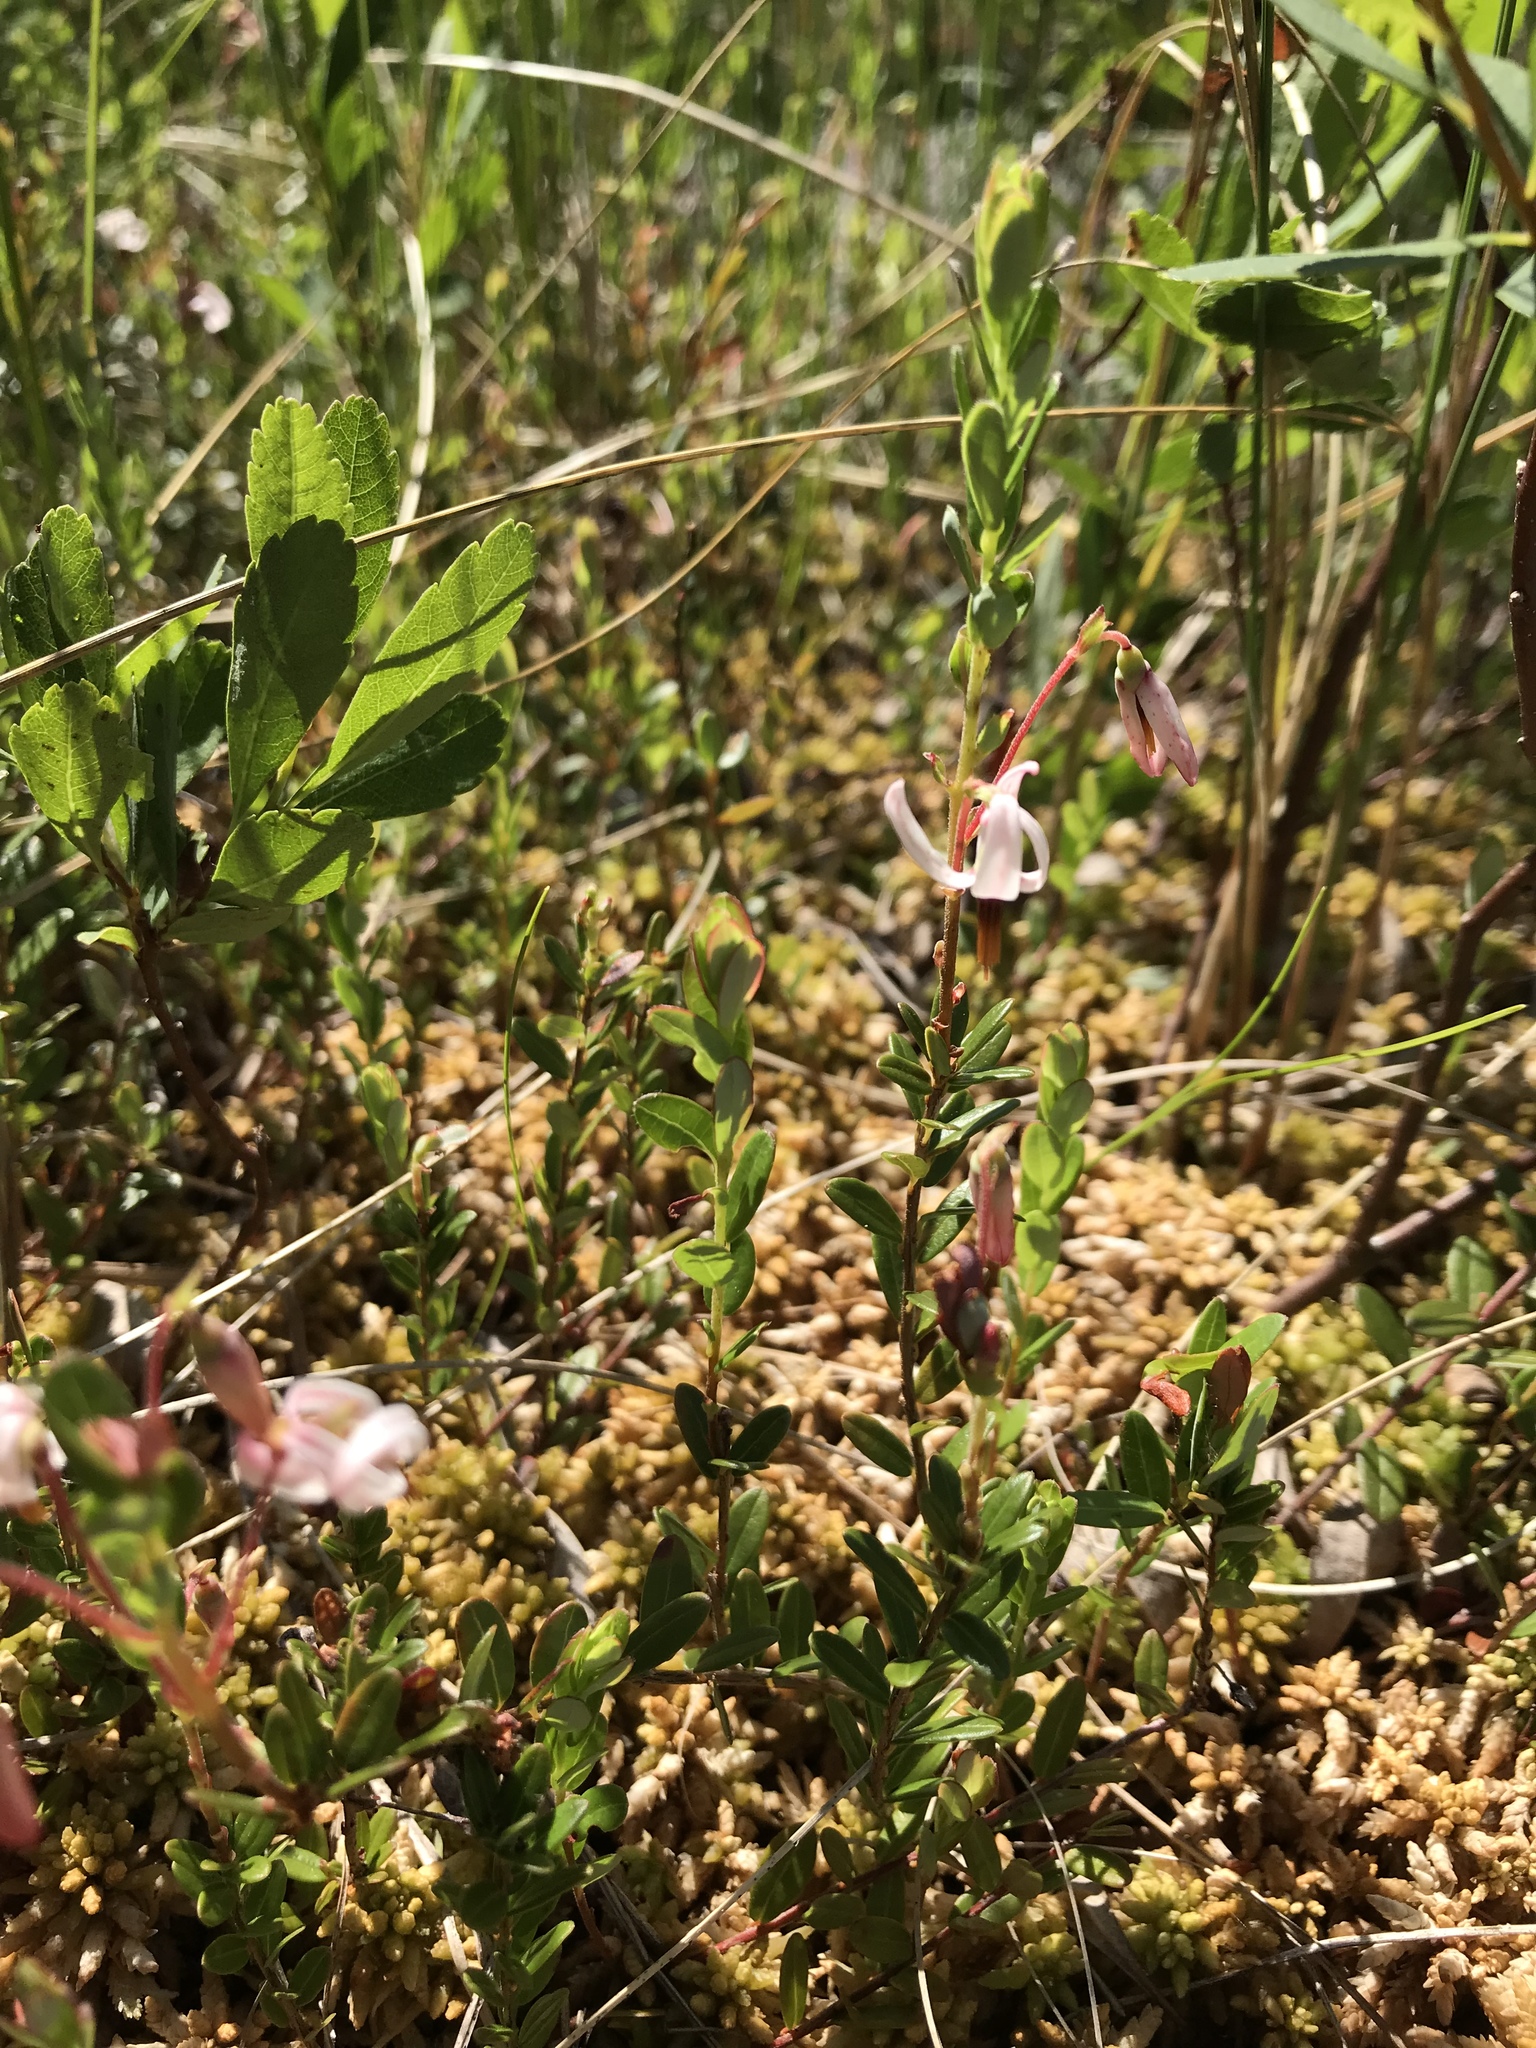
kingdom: Plantae
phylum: Tracheophyta
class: Magnoliopsida
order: Ericales
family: Ericaceae
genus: Vaccinium
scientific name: Vaccinium macrocarpon
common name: American cranberry
